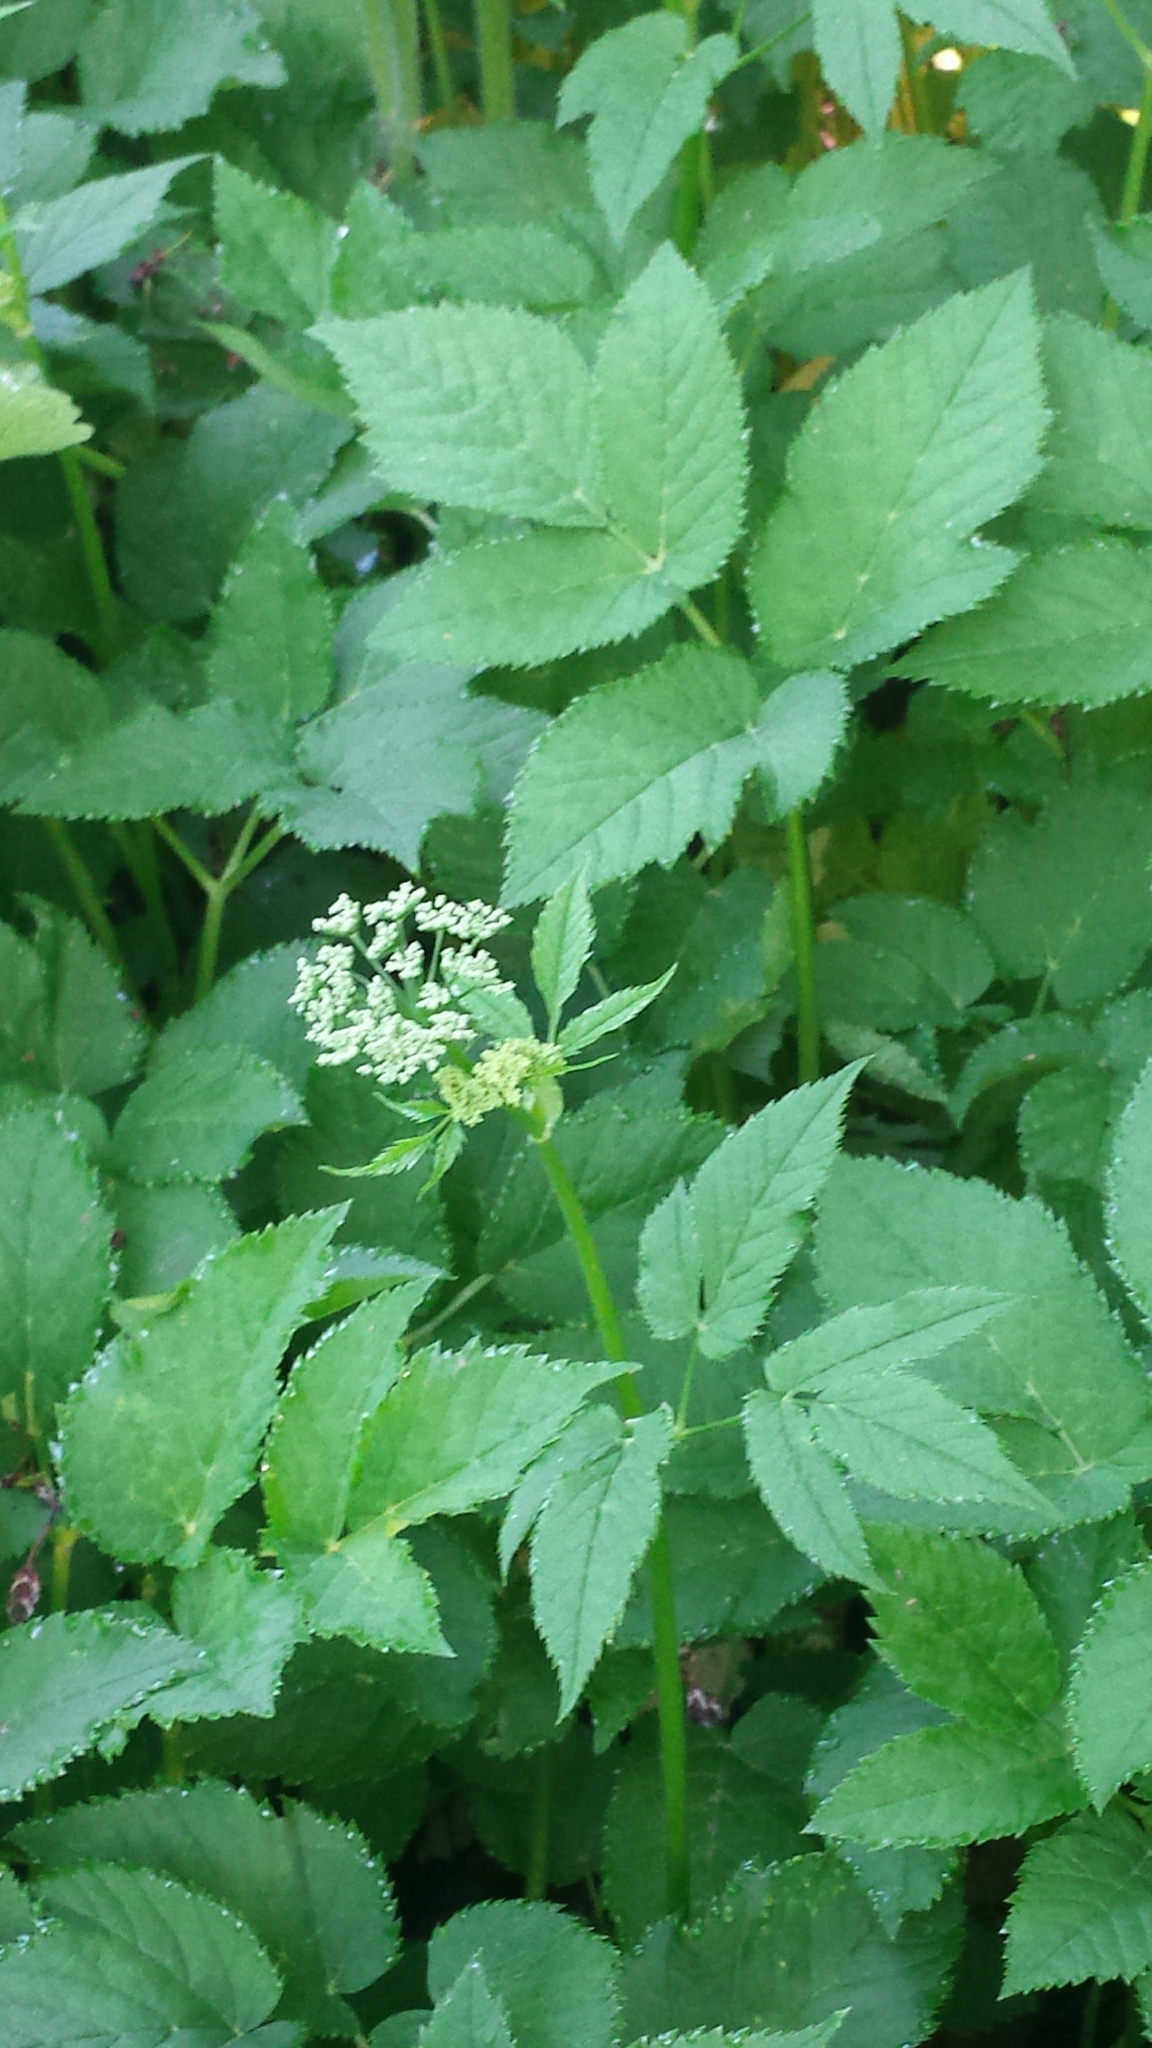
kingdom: Plantae
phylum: Tracheophyta
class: Magnoliopsida
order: Apiales
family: Apiaceae
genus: Aegopodium
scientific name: Aegopodium podagraria
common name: Ground-elder
